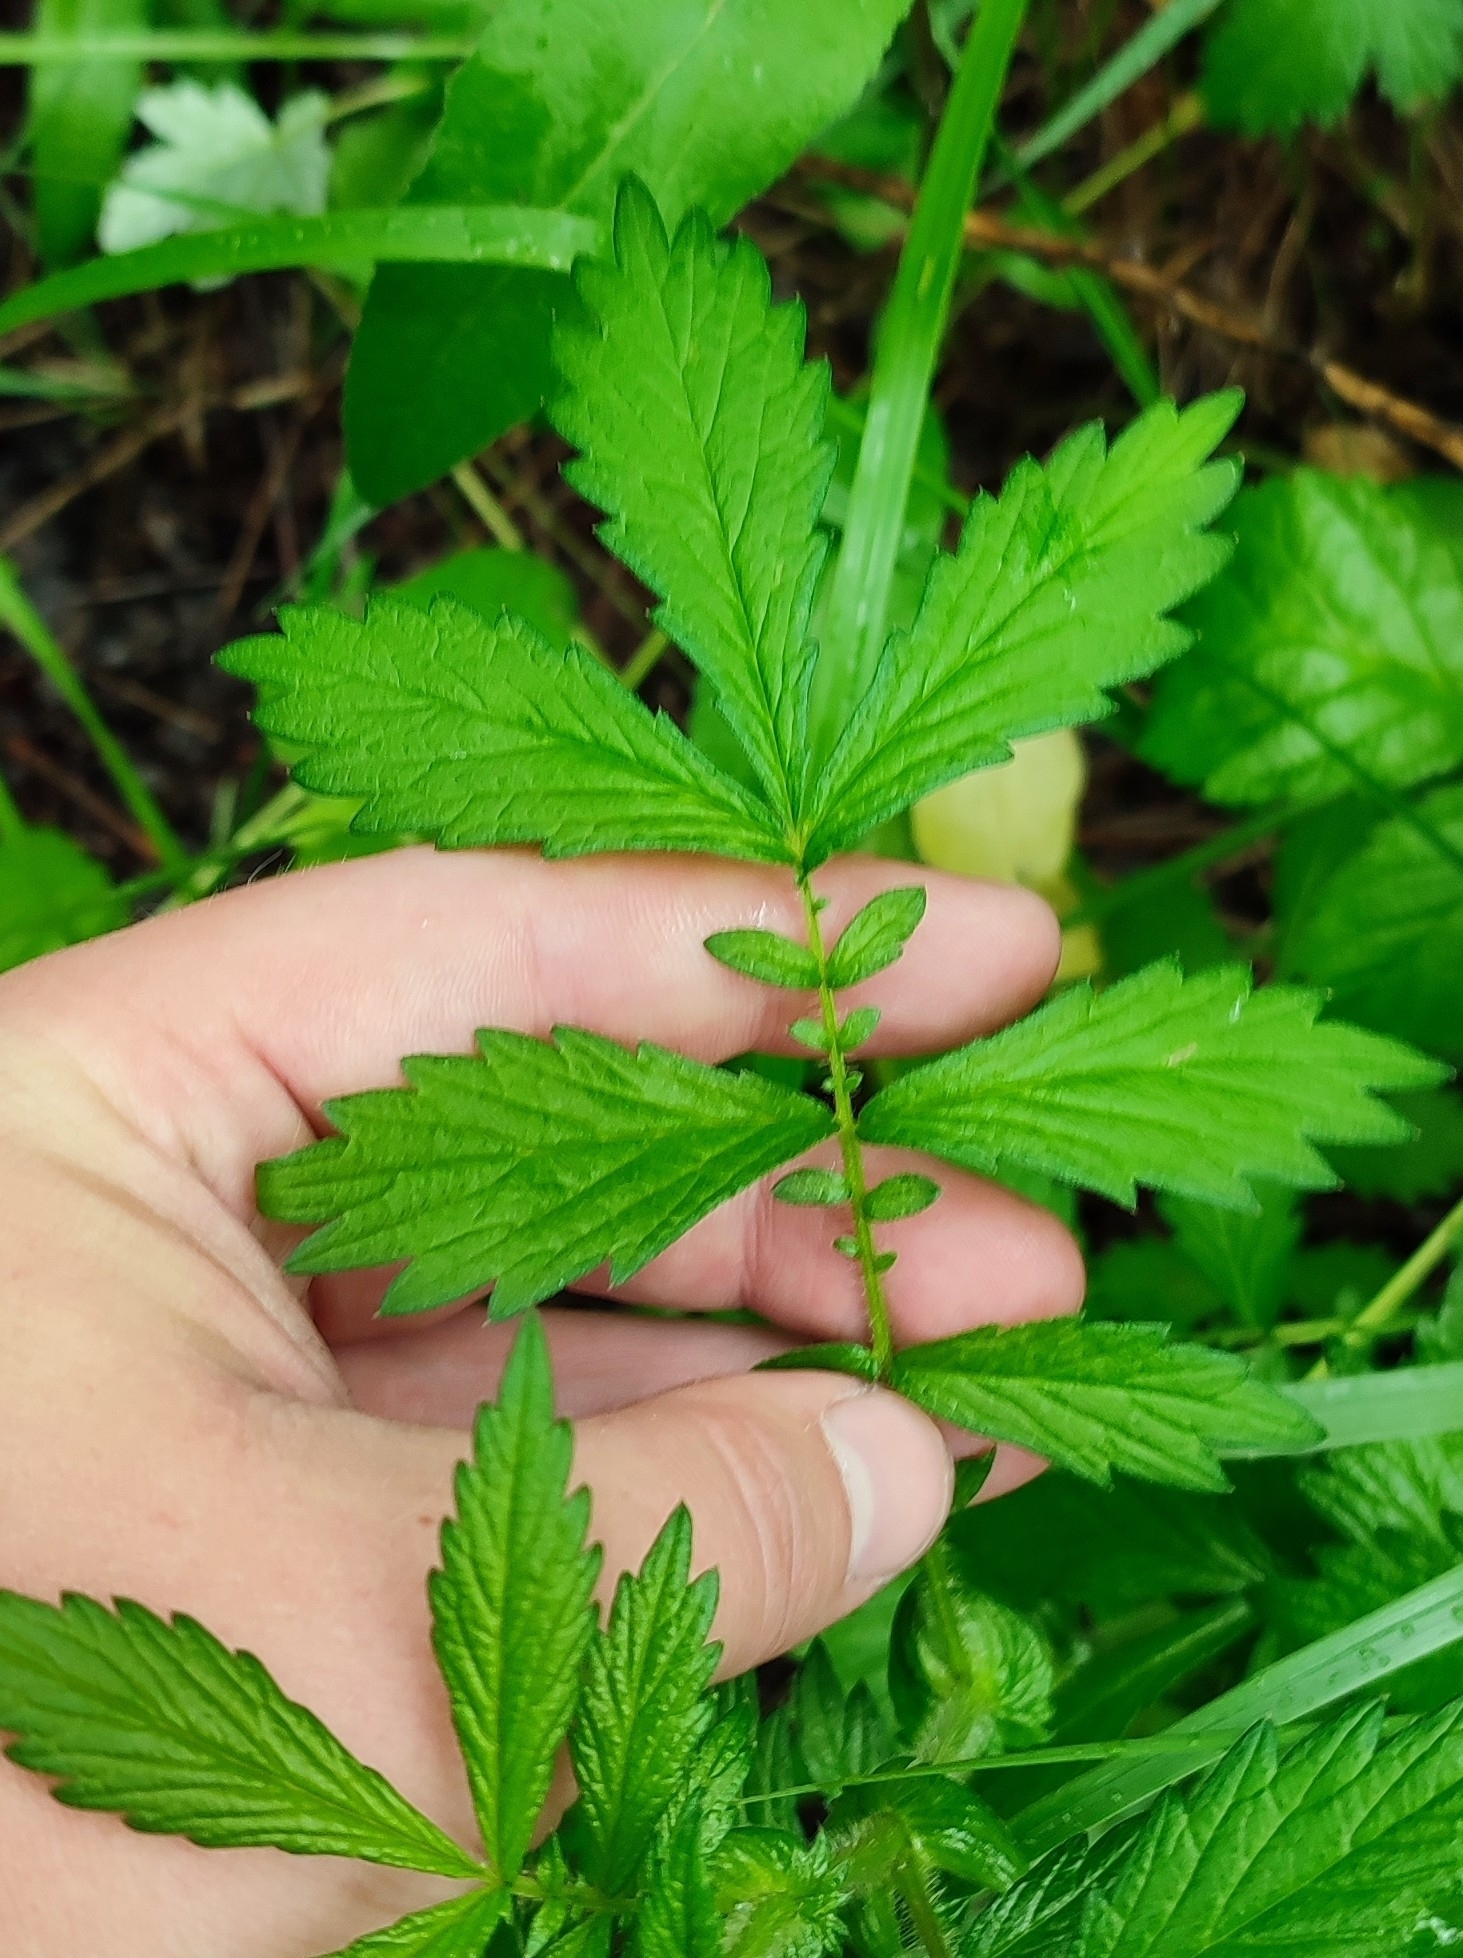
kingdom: Plantae
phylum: Tracheophyta
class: Magnoliopsida
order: Rosales
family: Rosaceae
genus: Agrimonia
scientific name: Agrimonia pilosa
